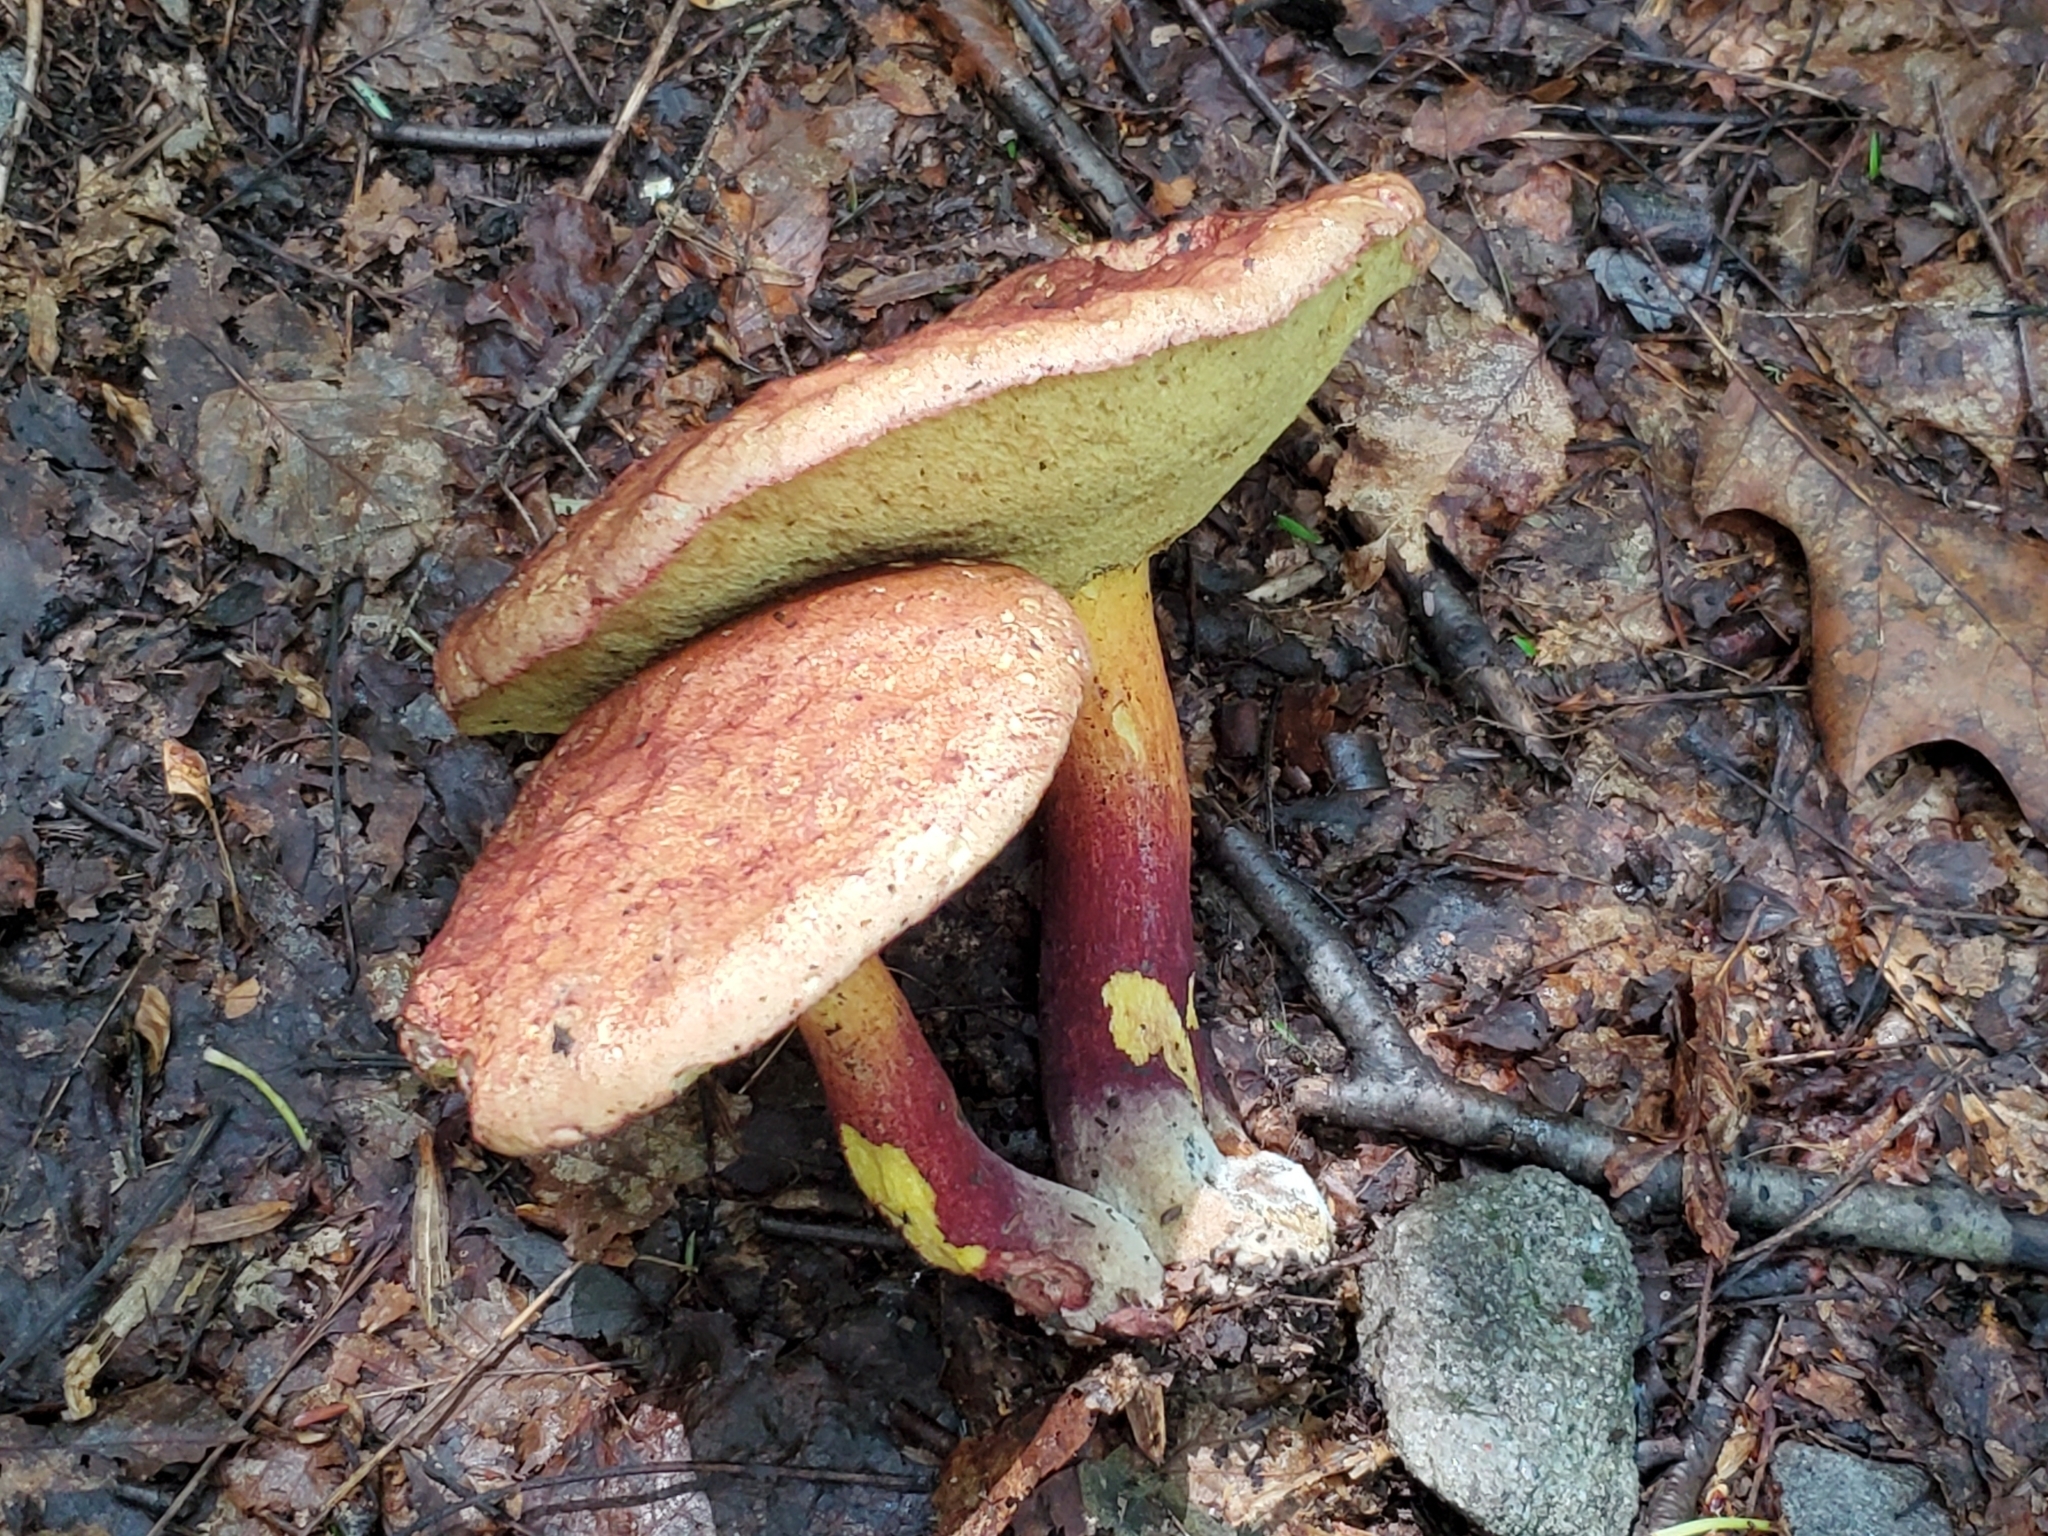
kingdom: Fungi
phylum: Basidiomycota
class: Agaricomycetes
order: Boletales
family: Boletaceae
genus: Baorangia
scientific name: Baorangia bicolor
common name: Two-colored bolete
